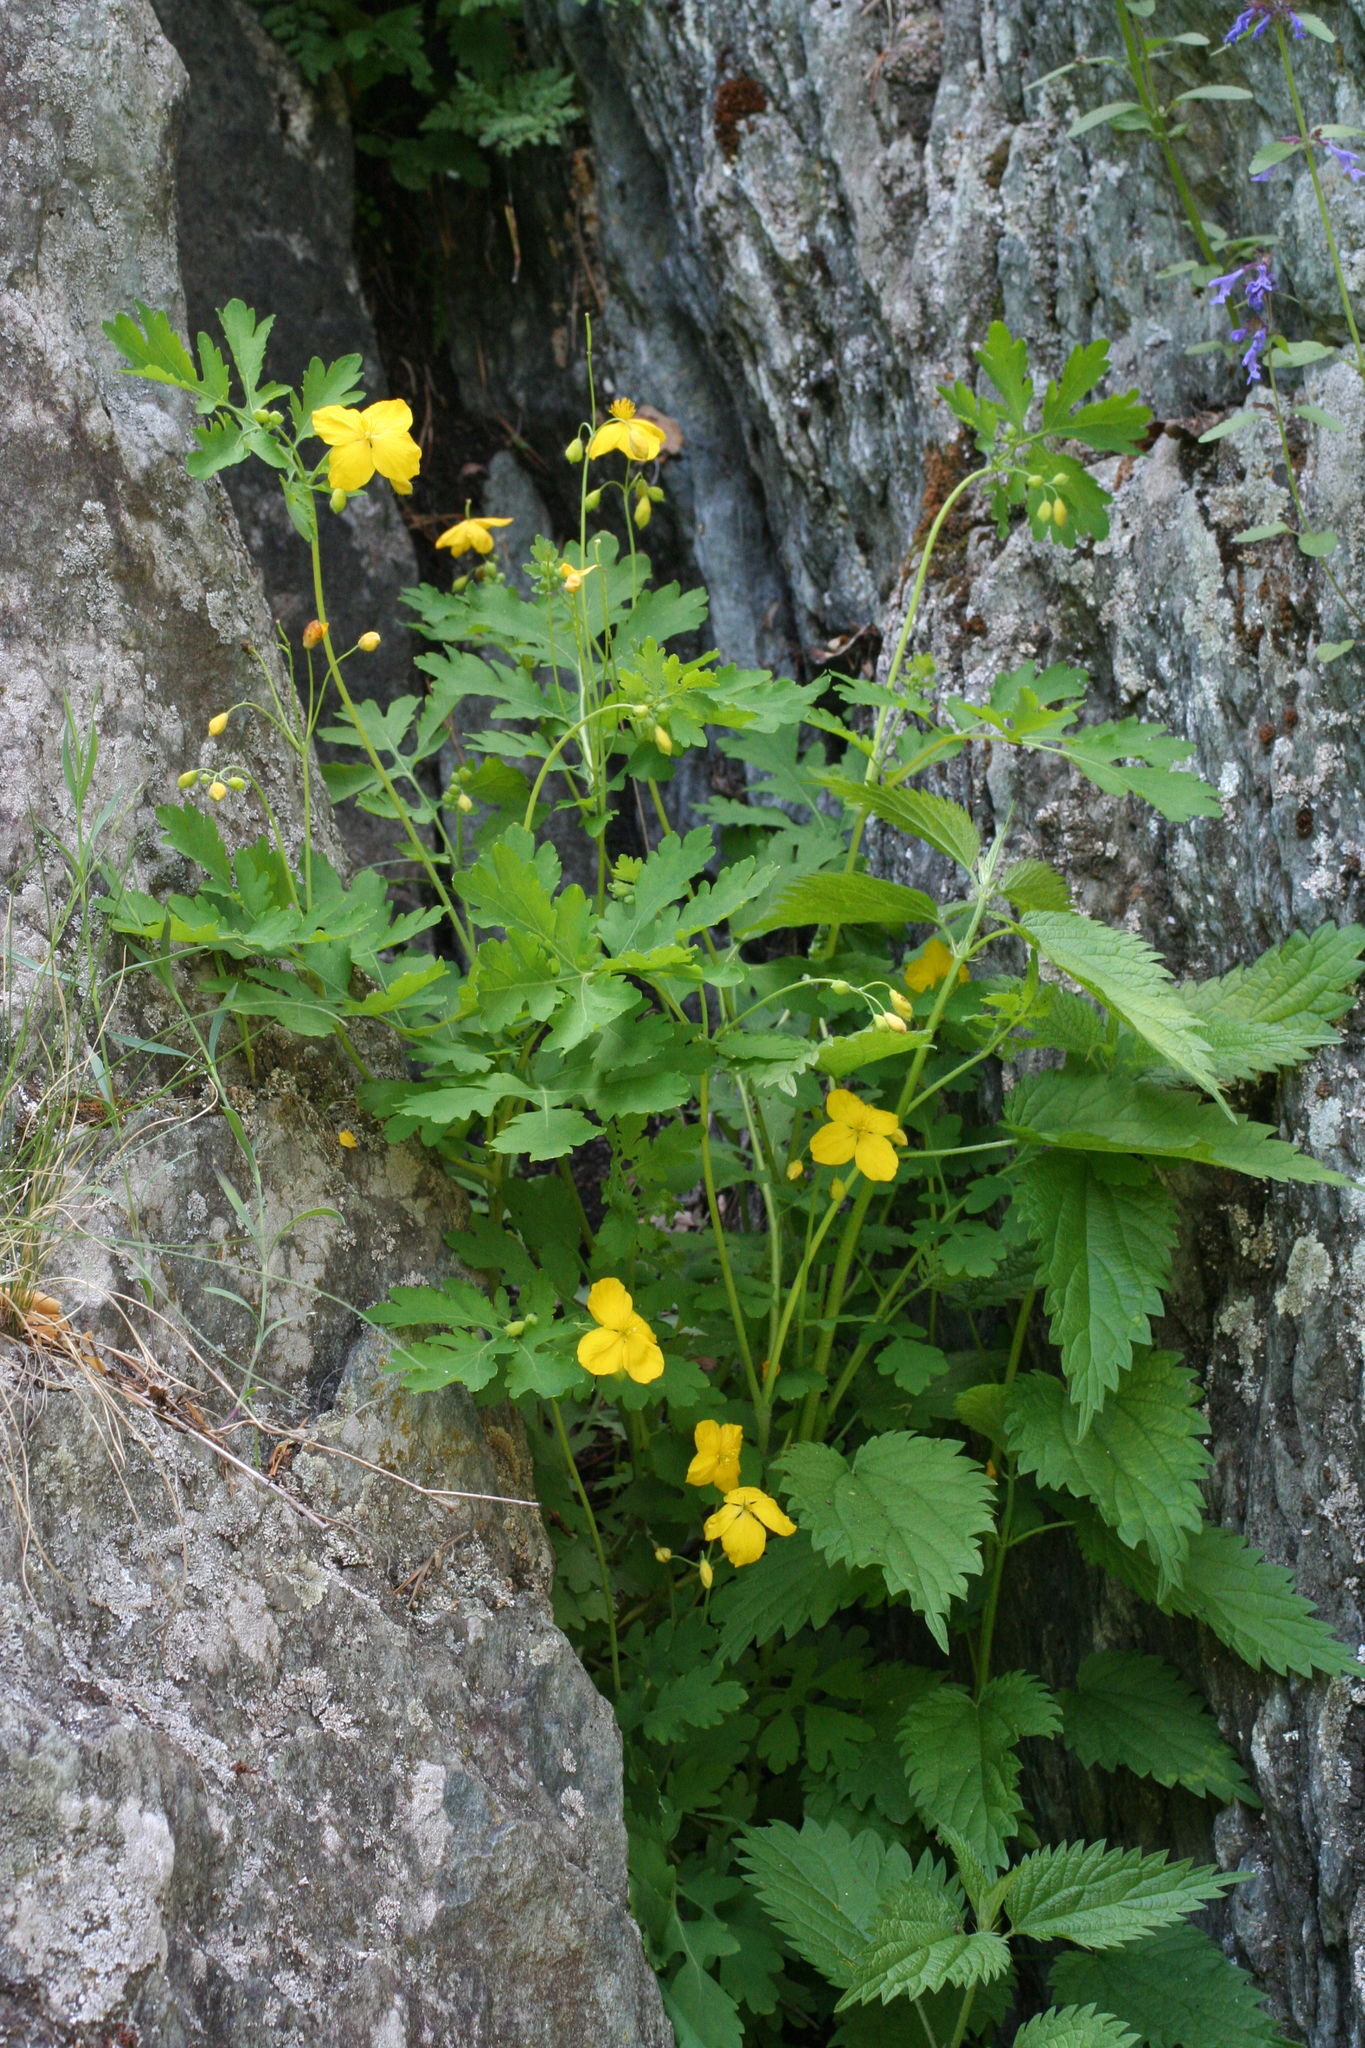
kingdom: Plantae
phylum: Tracheophyta
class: Magnoliopsida
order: Ranunculales
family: Papaveraceae
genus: Chelidonium
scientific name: Chelidonium majus
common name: Greater celandine
